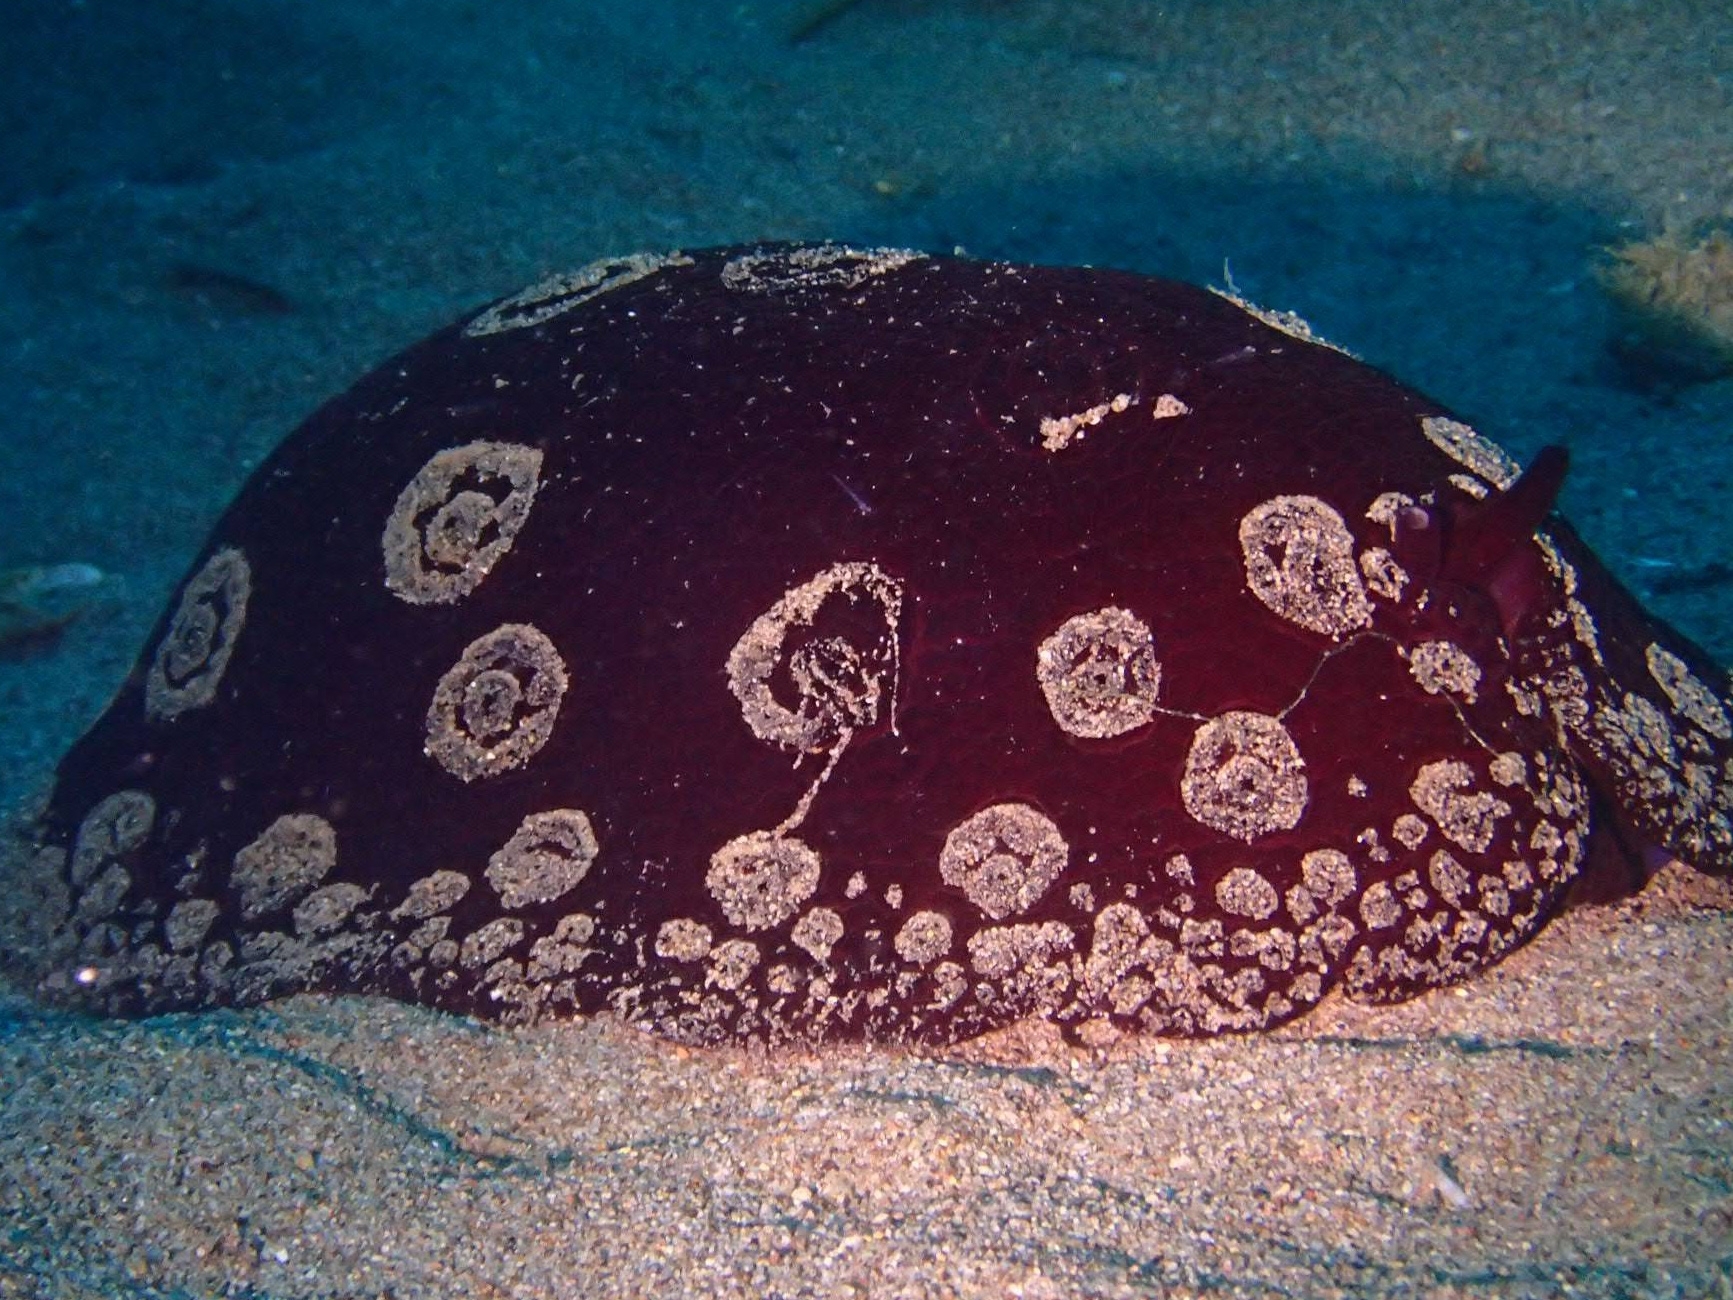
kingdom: Animalia
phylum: Mollusca
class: Gastropoda
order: Pleurobranchida
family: Pleurobranchidae
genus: Pleurobranchus
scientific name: Pleurobranchus weberi
